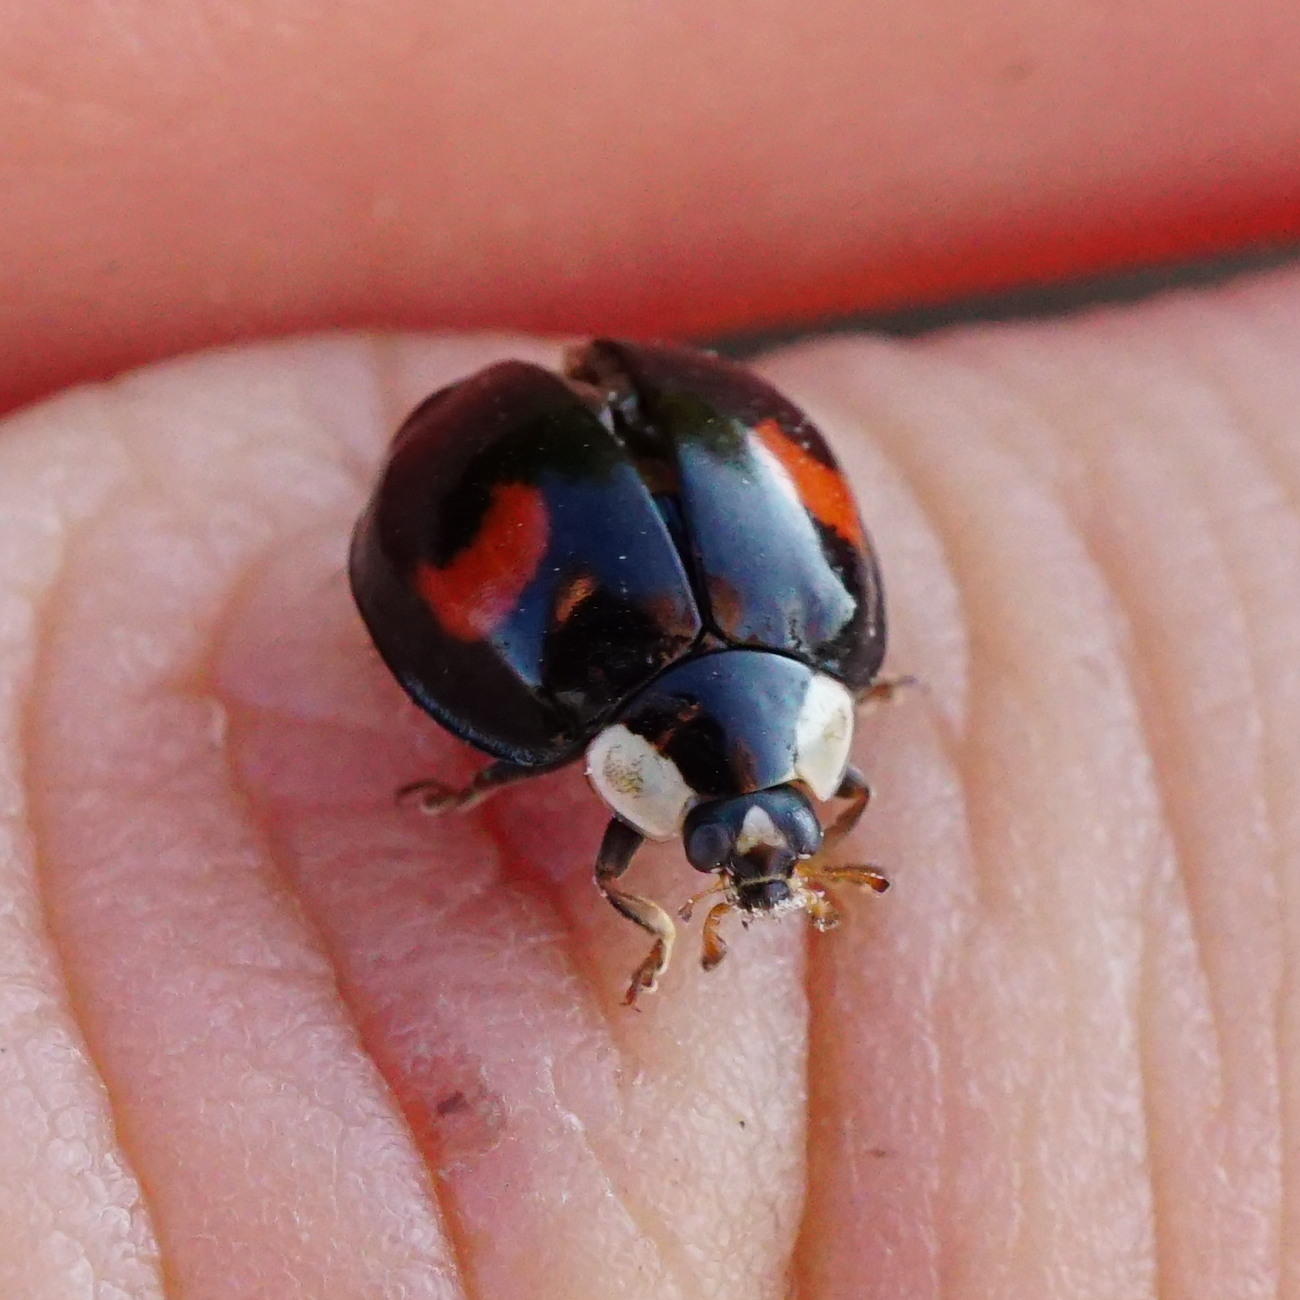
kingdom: Animalia
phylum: Arthropoda
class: Insecta
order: Coleoptera
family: Coccinellidae
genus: Harmonia
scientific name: Harmonia axyridis
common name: Harlequin ladybird
